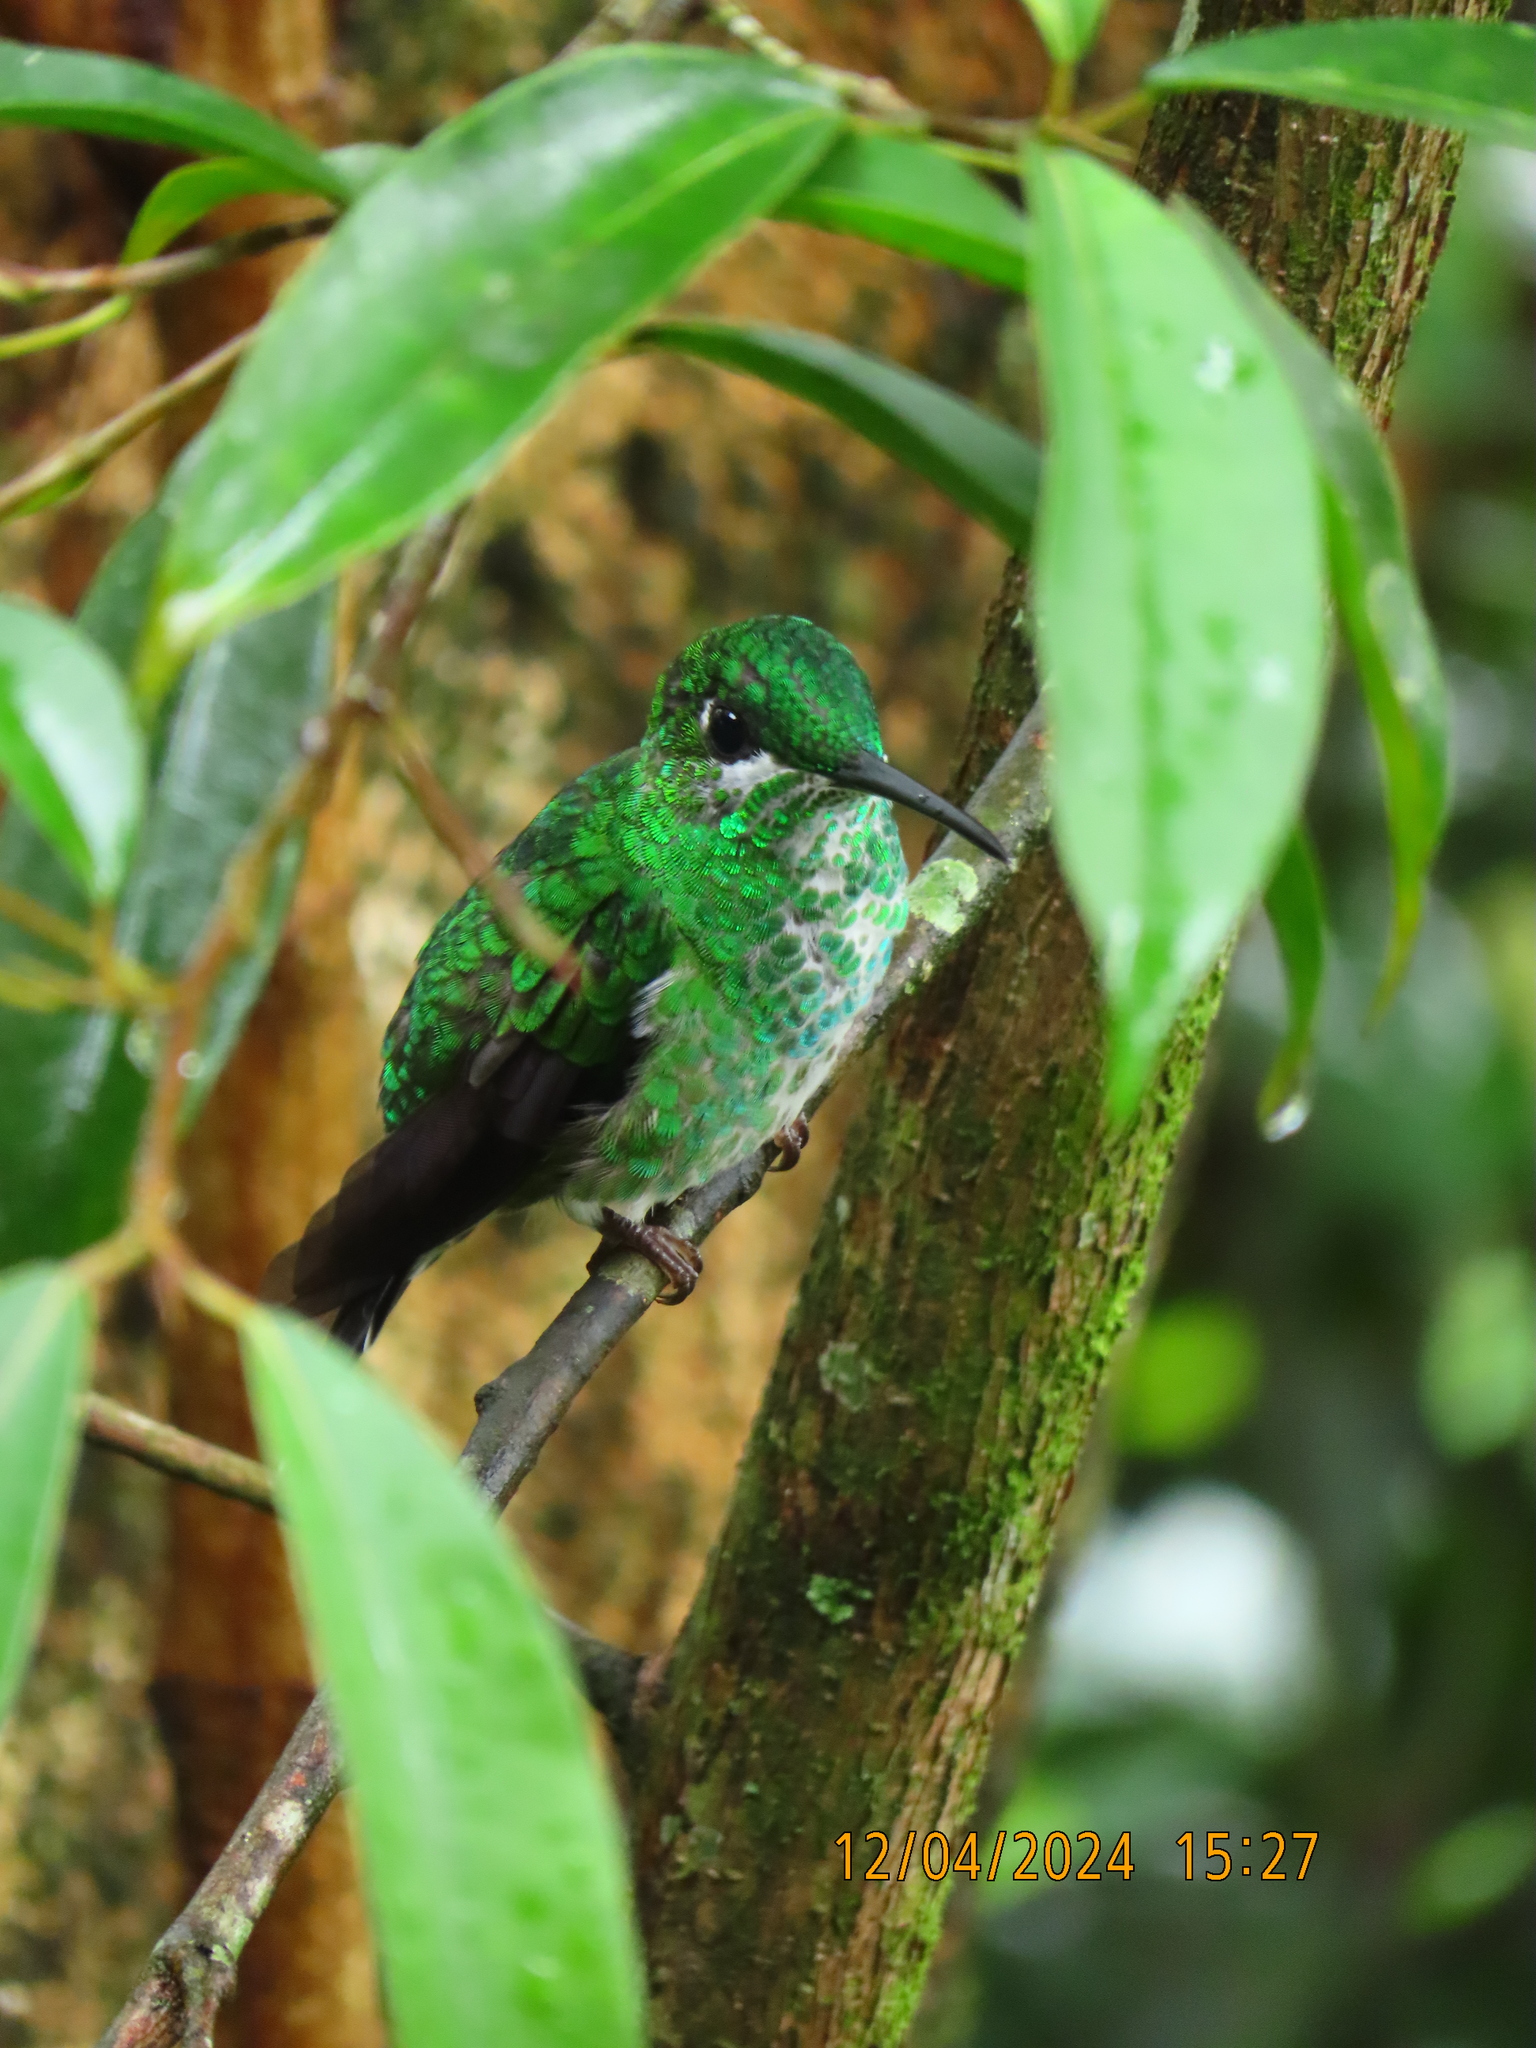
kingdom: Animalia
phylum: Chordata
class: Aves
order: Apodiformes
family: Trochilidae
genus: Heliodoxa
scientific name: Heliodoxa jacula
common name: Green-crowned brilliant
